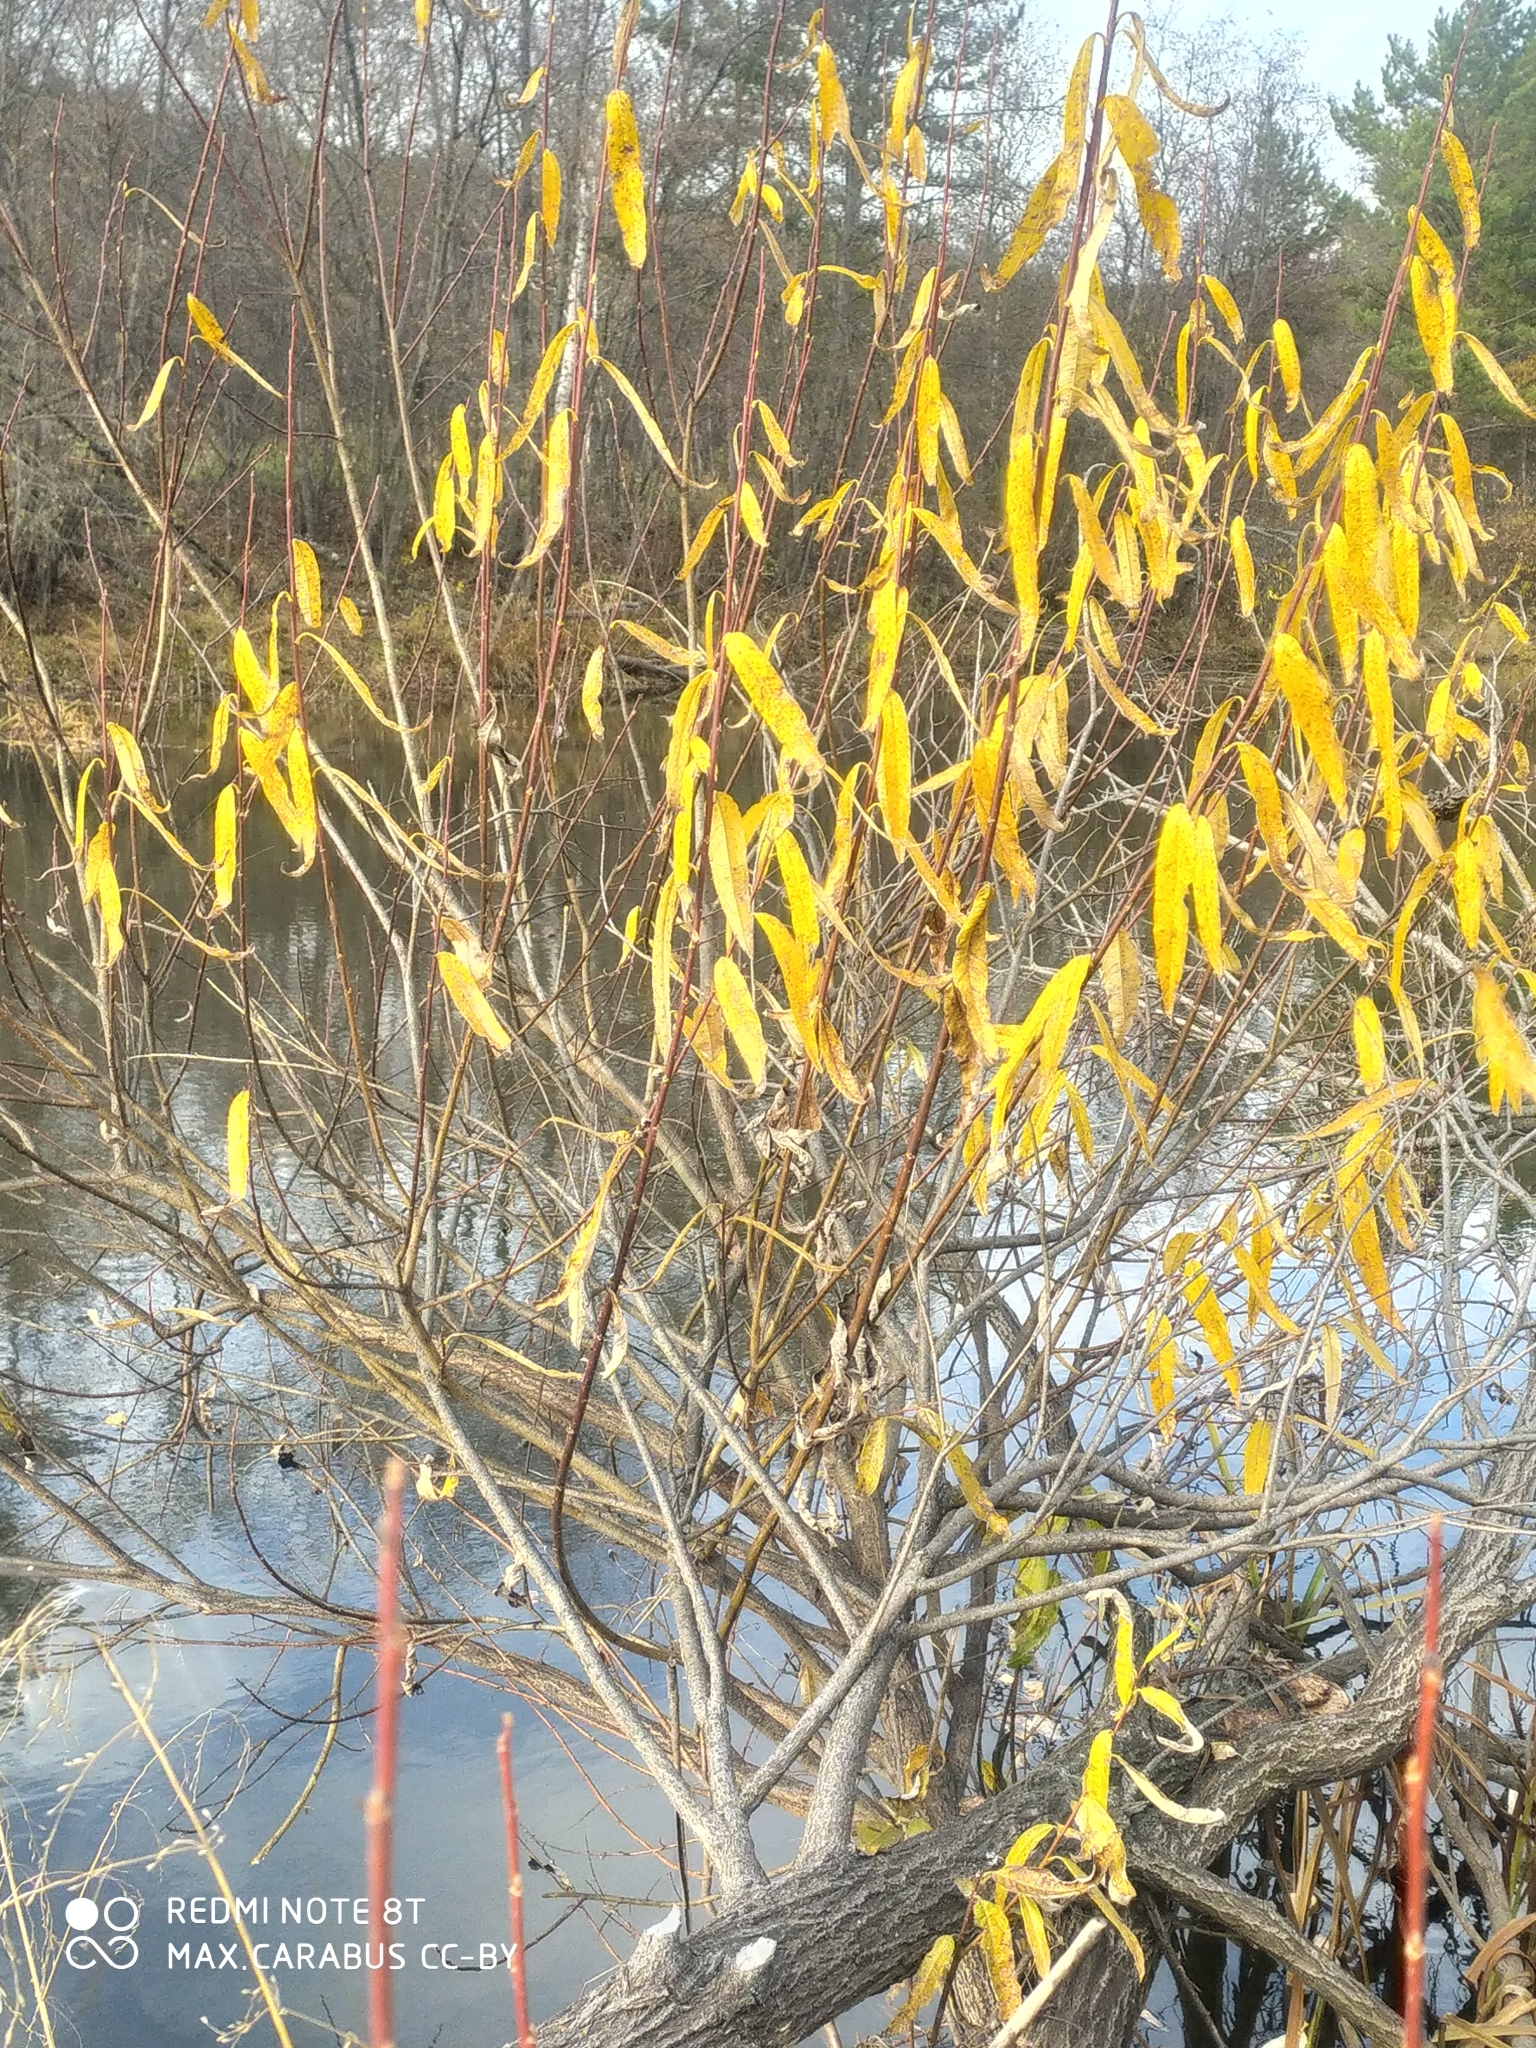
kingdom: Plantae
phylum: Tracheophyta
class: Magnoliopsida
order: Malpighiales
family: Salicaceae
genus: Salix
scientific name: Salix viminalis
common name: Osier
